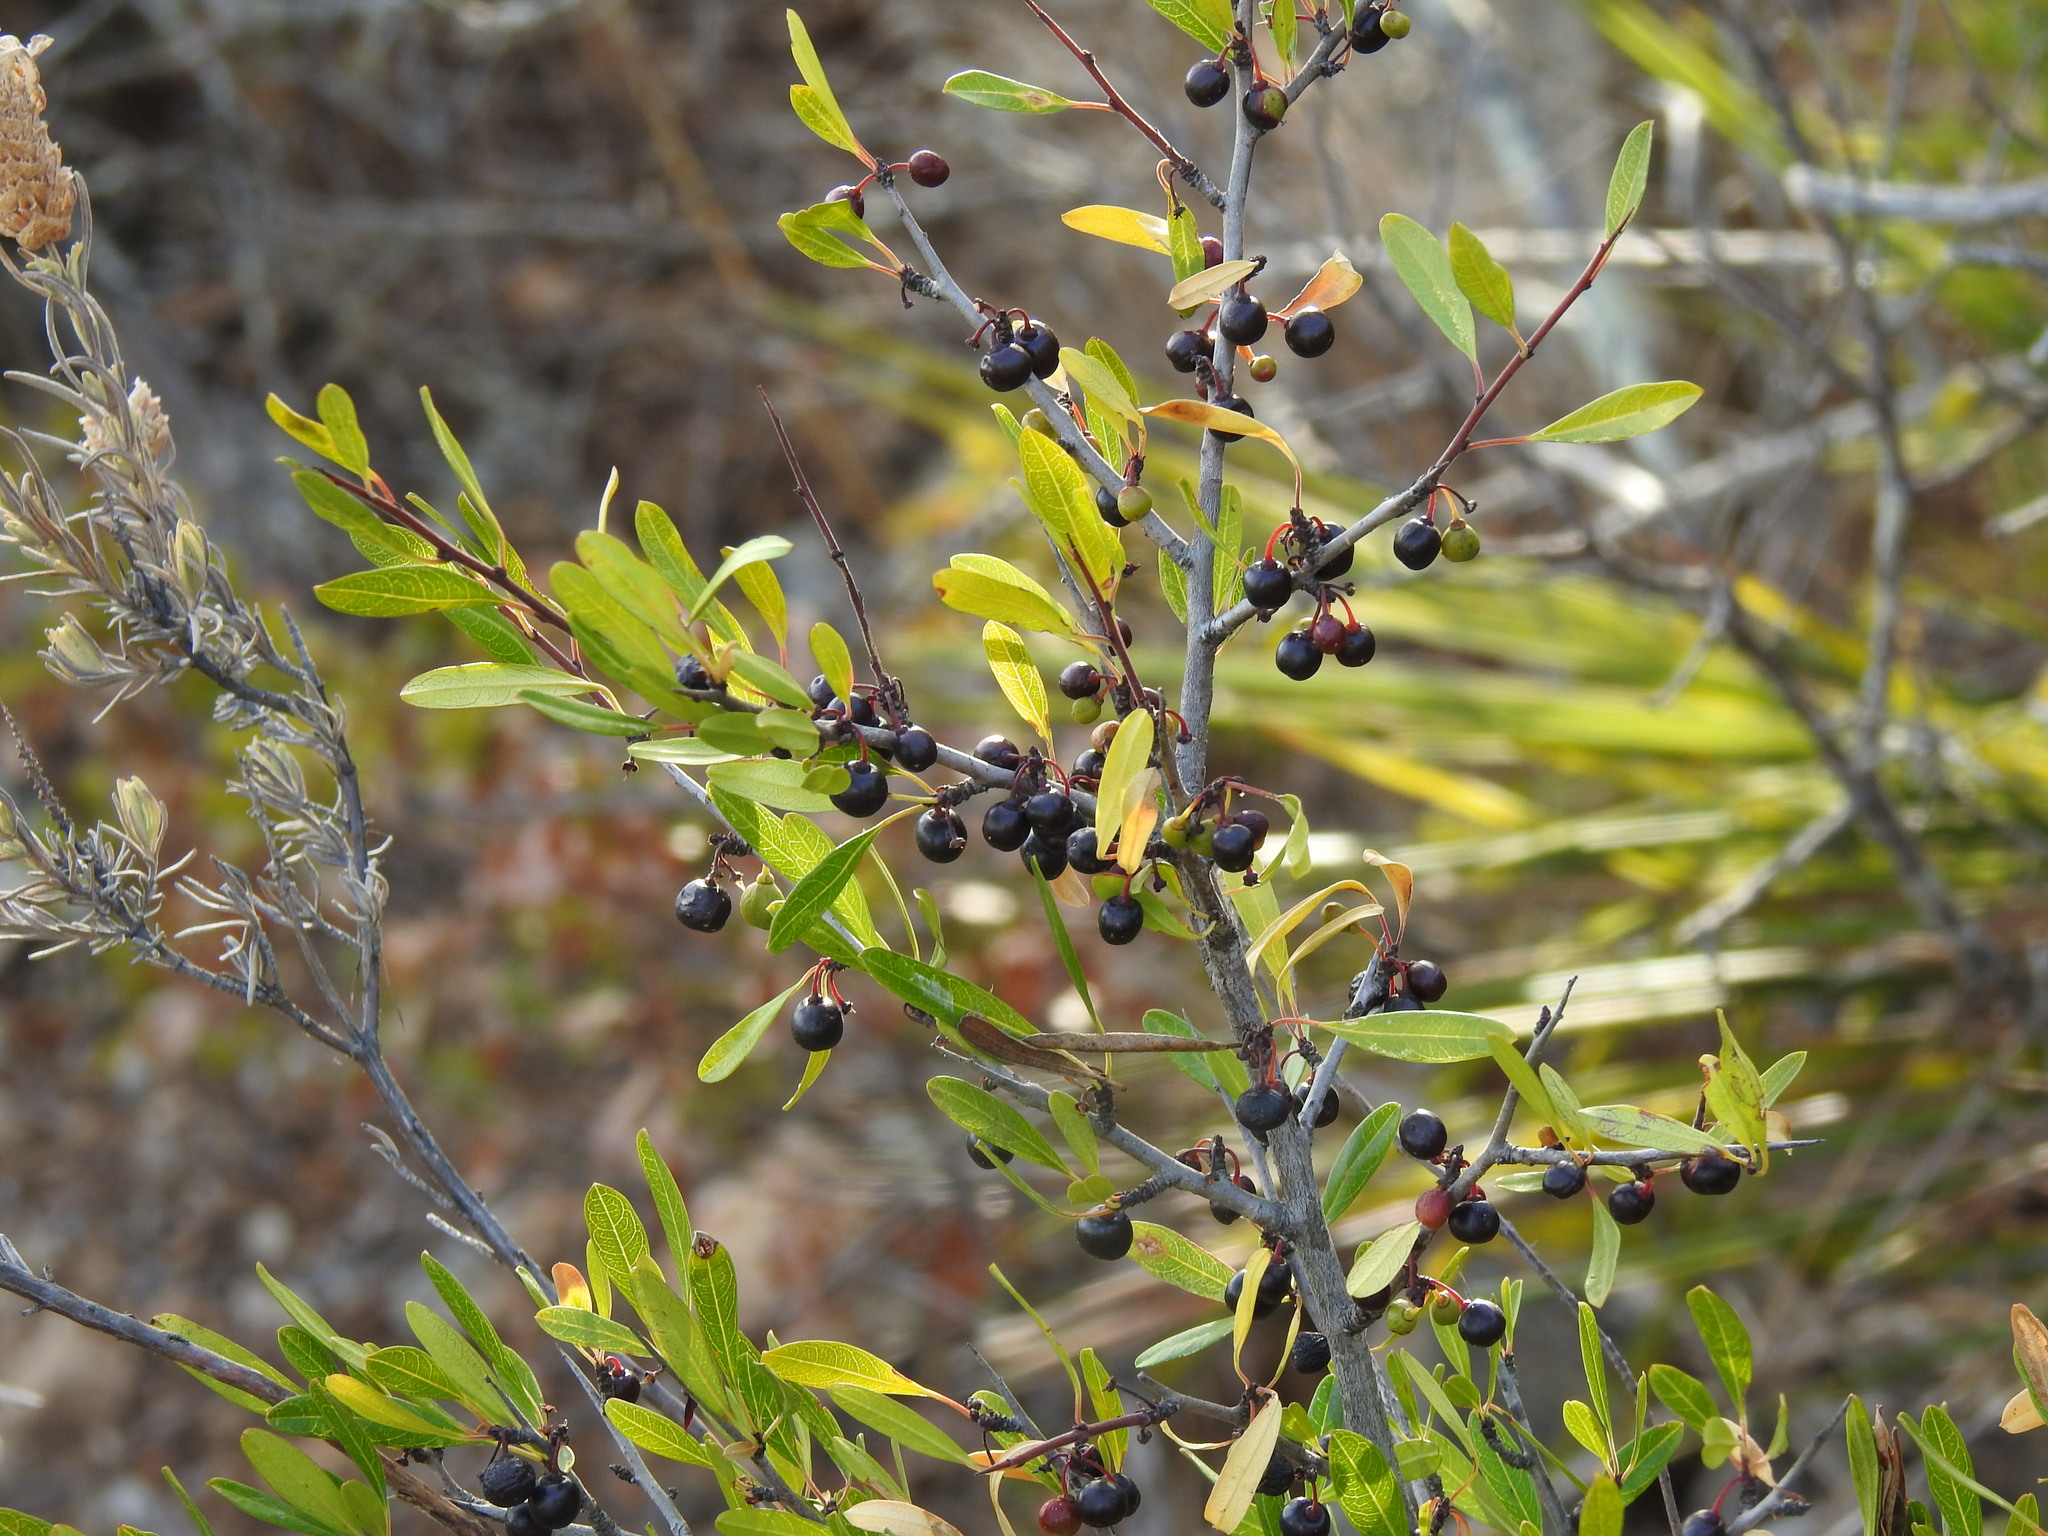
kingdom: Plantae
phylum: Tracheophyta
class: Magnoliopsida
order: Rosales
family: Rhamnaceae
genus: Rhamnus
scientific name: Rhamnus oleoides
